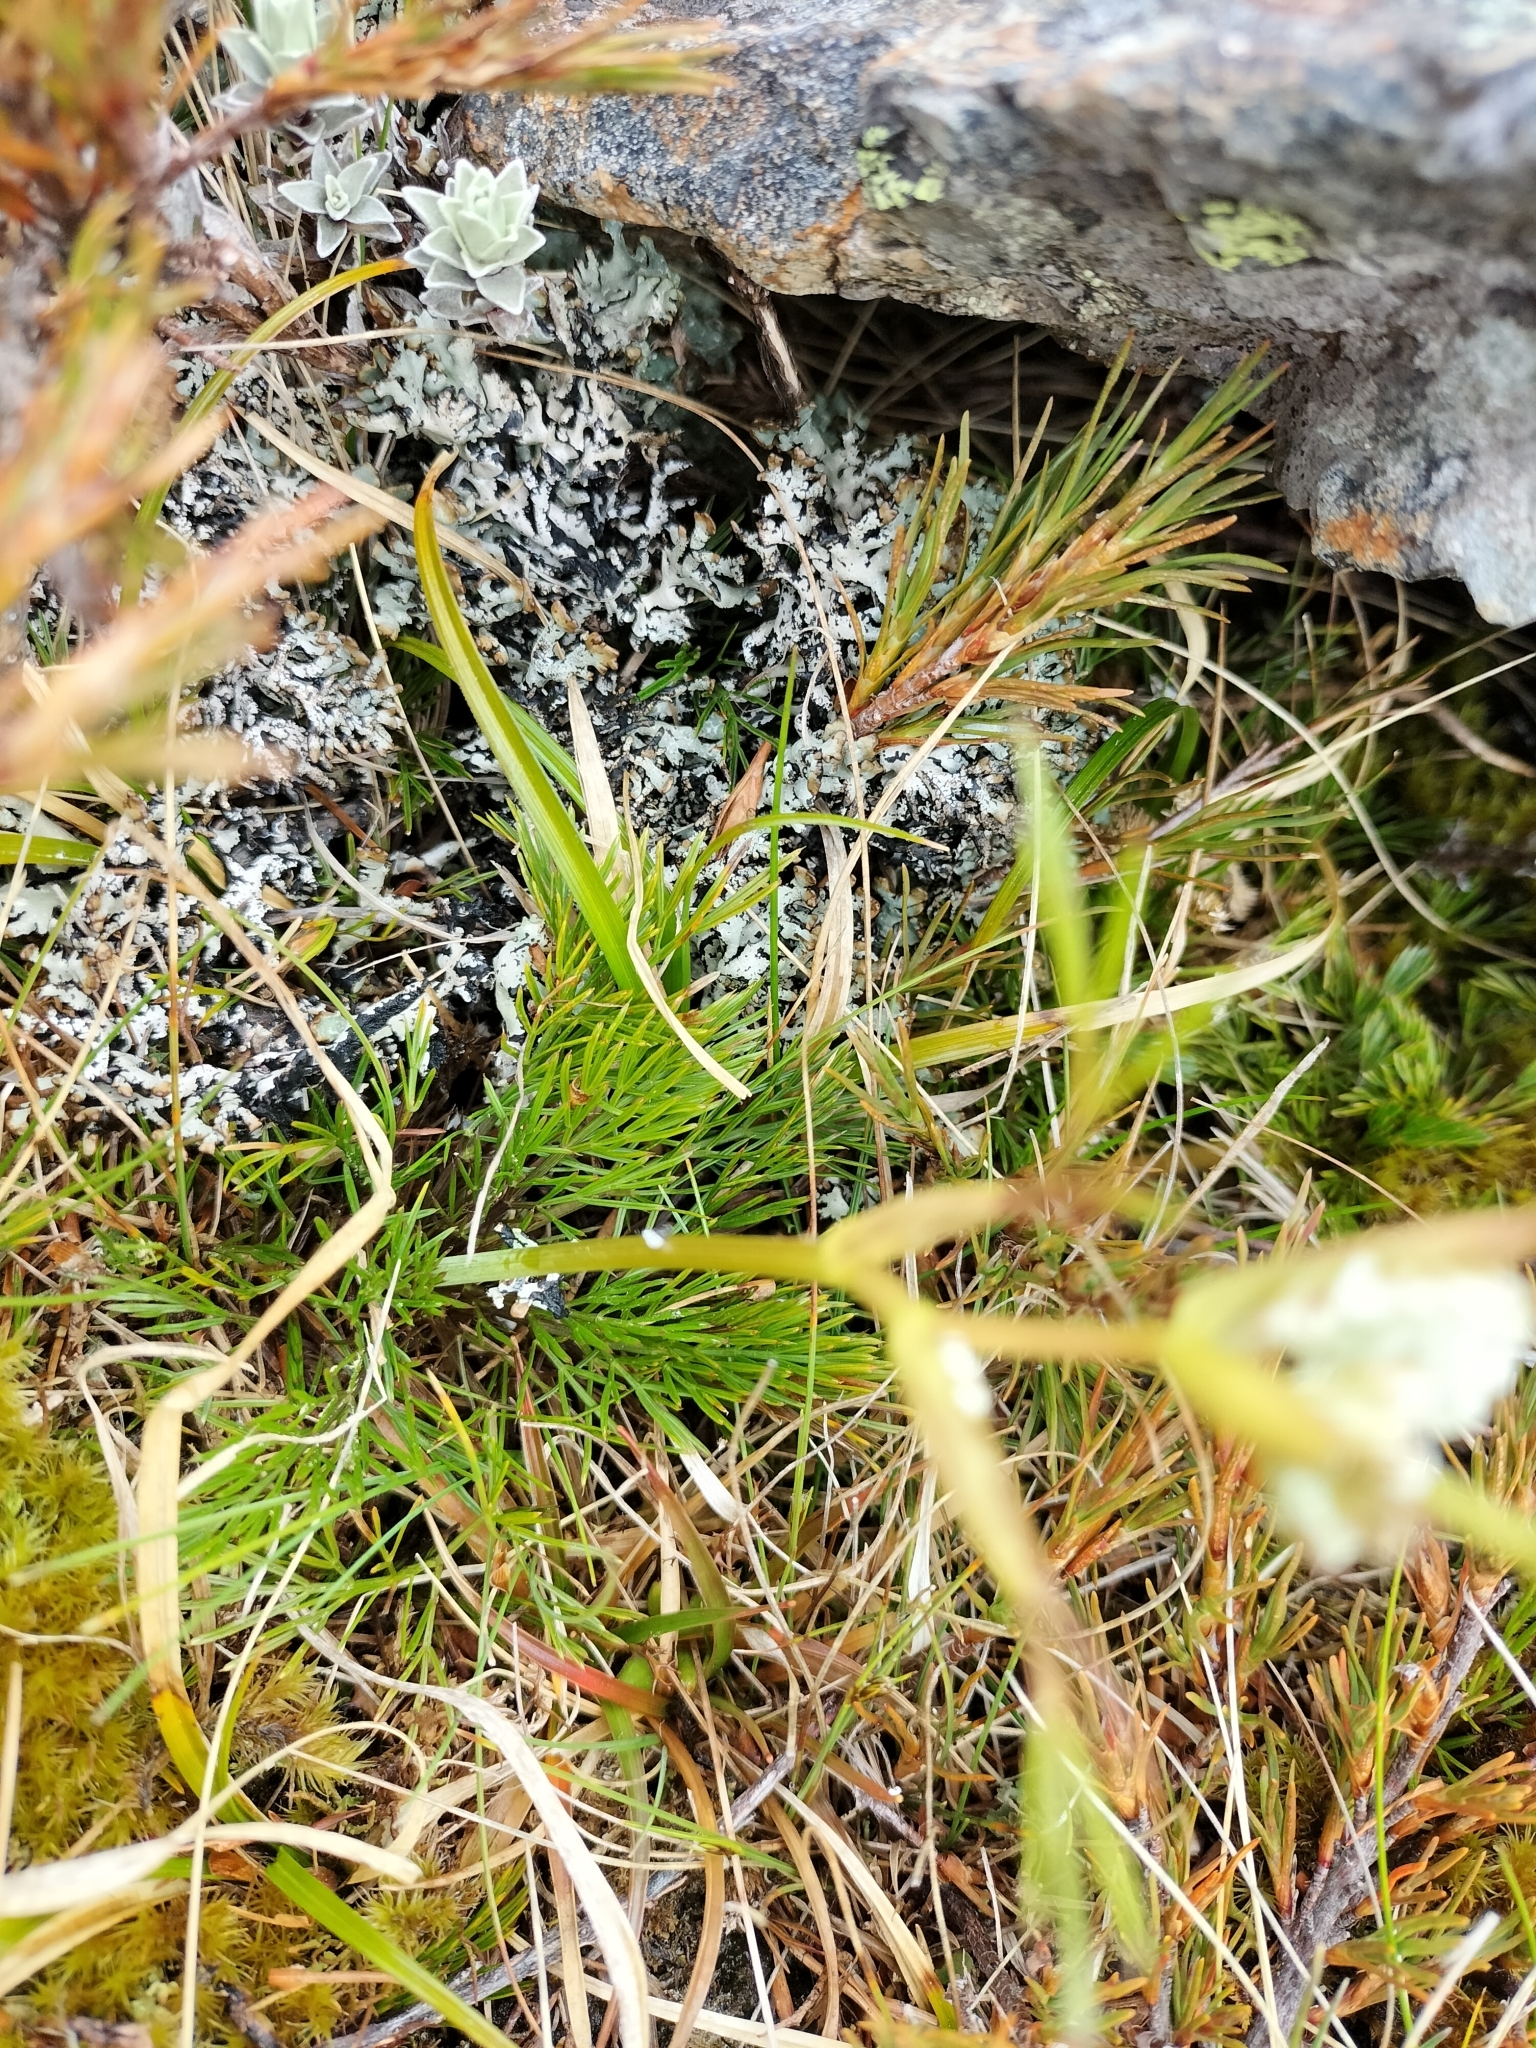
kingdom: Plantae
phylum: Tracheophyta
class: Magnoliopsida
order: Apiales
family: Apiaceae
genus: Aciphylla
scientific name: Aciphylla polita
